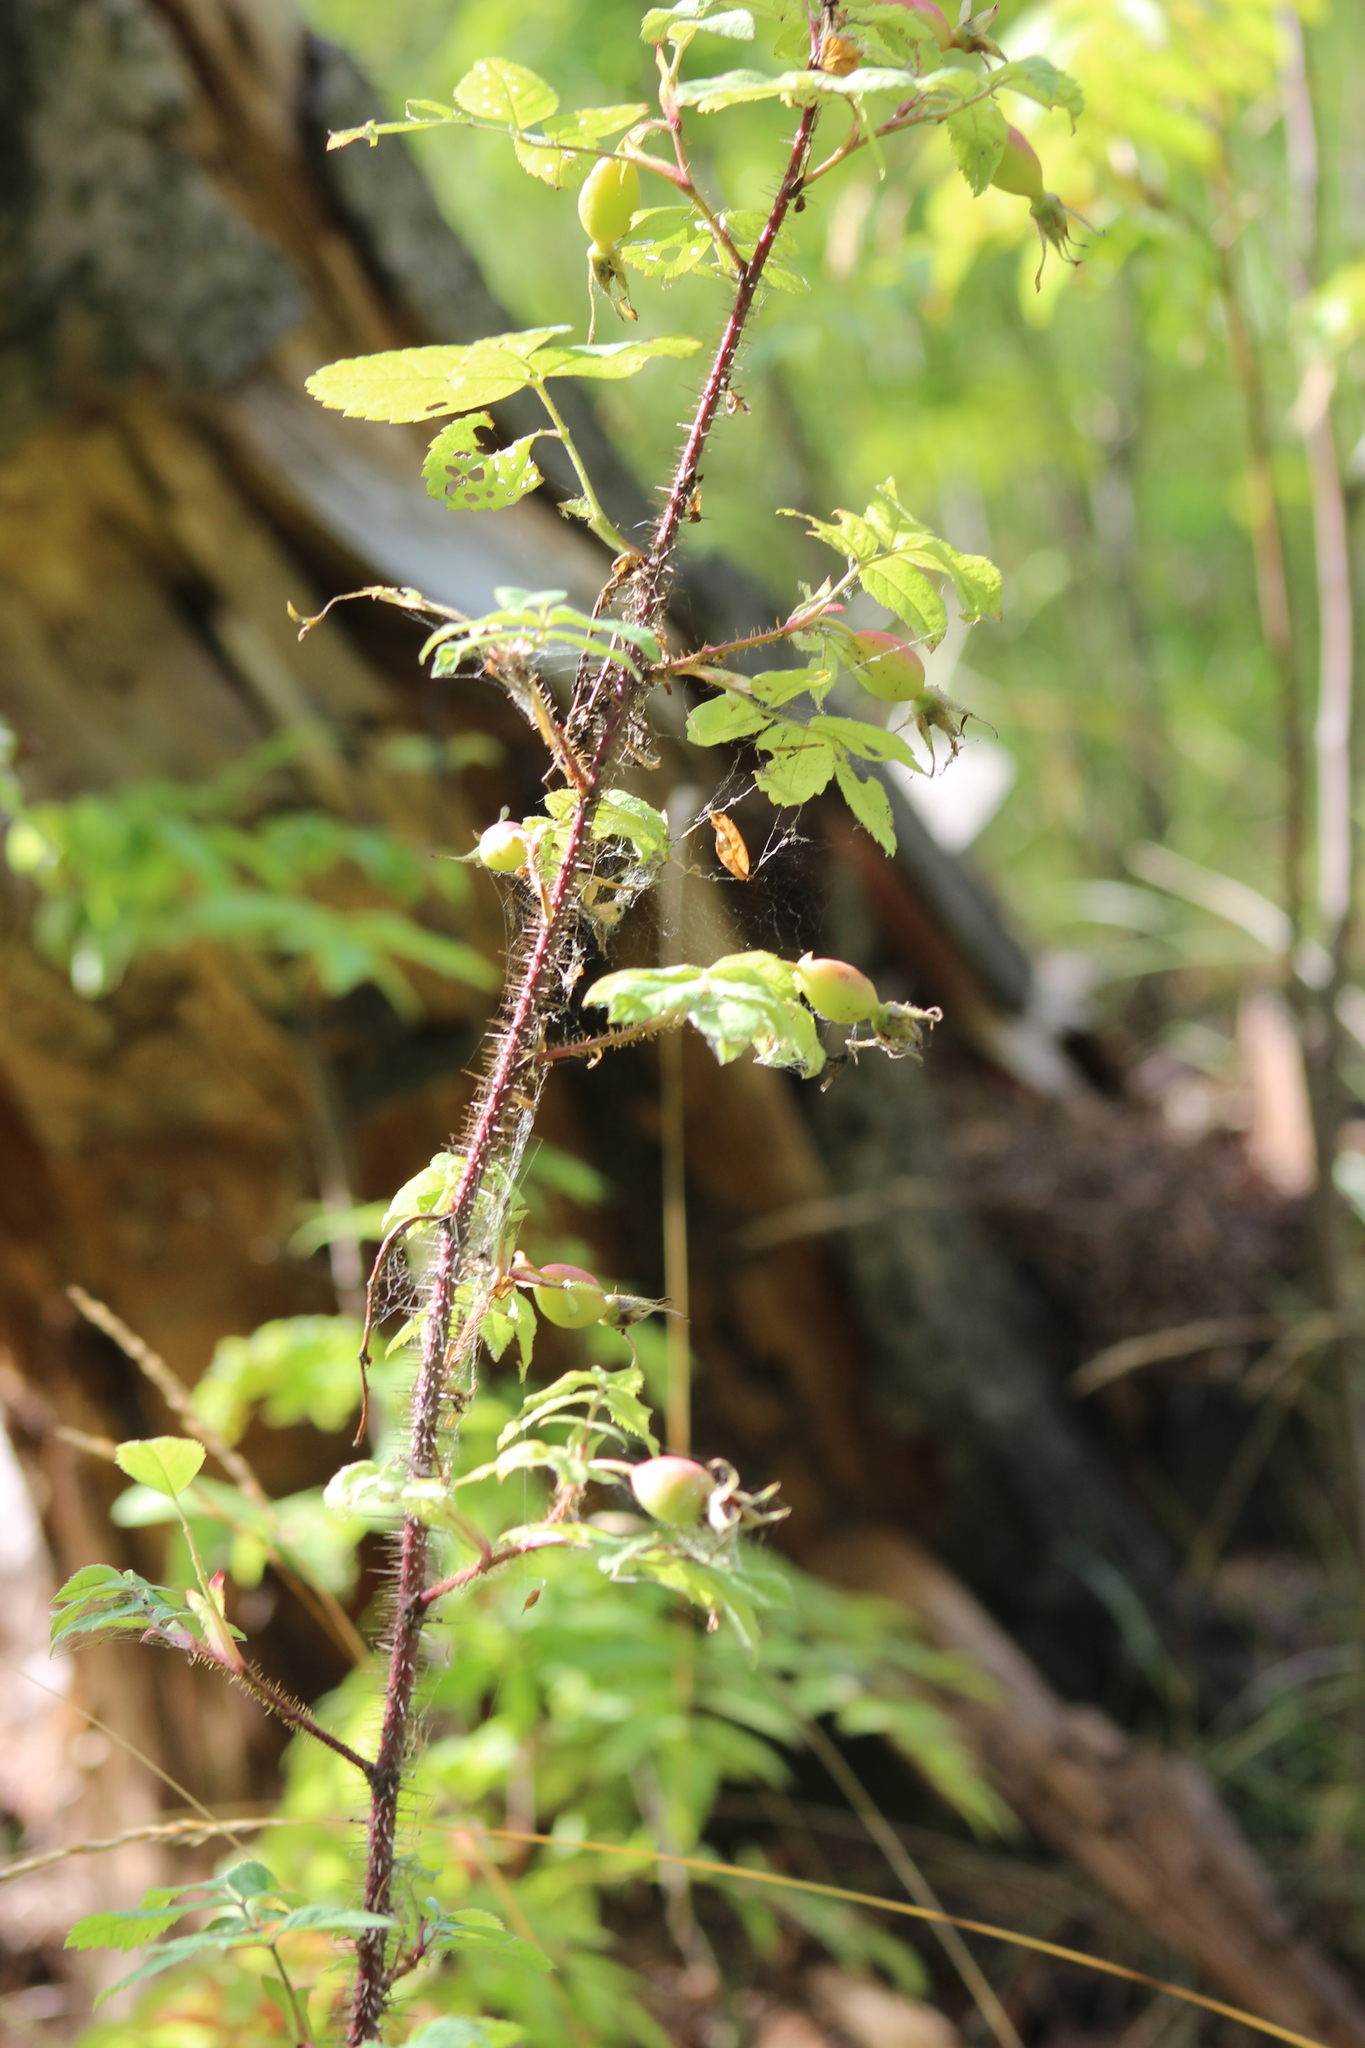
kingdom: Plantae
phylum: Tracheophyta
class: Magnoliopsida
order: Rosales
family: Rosaceae
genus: Rosa
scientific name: Rosa acicularis
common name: Prickly rose
